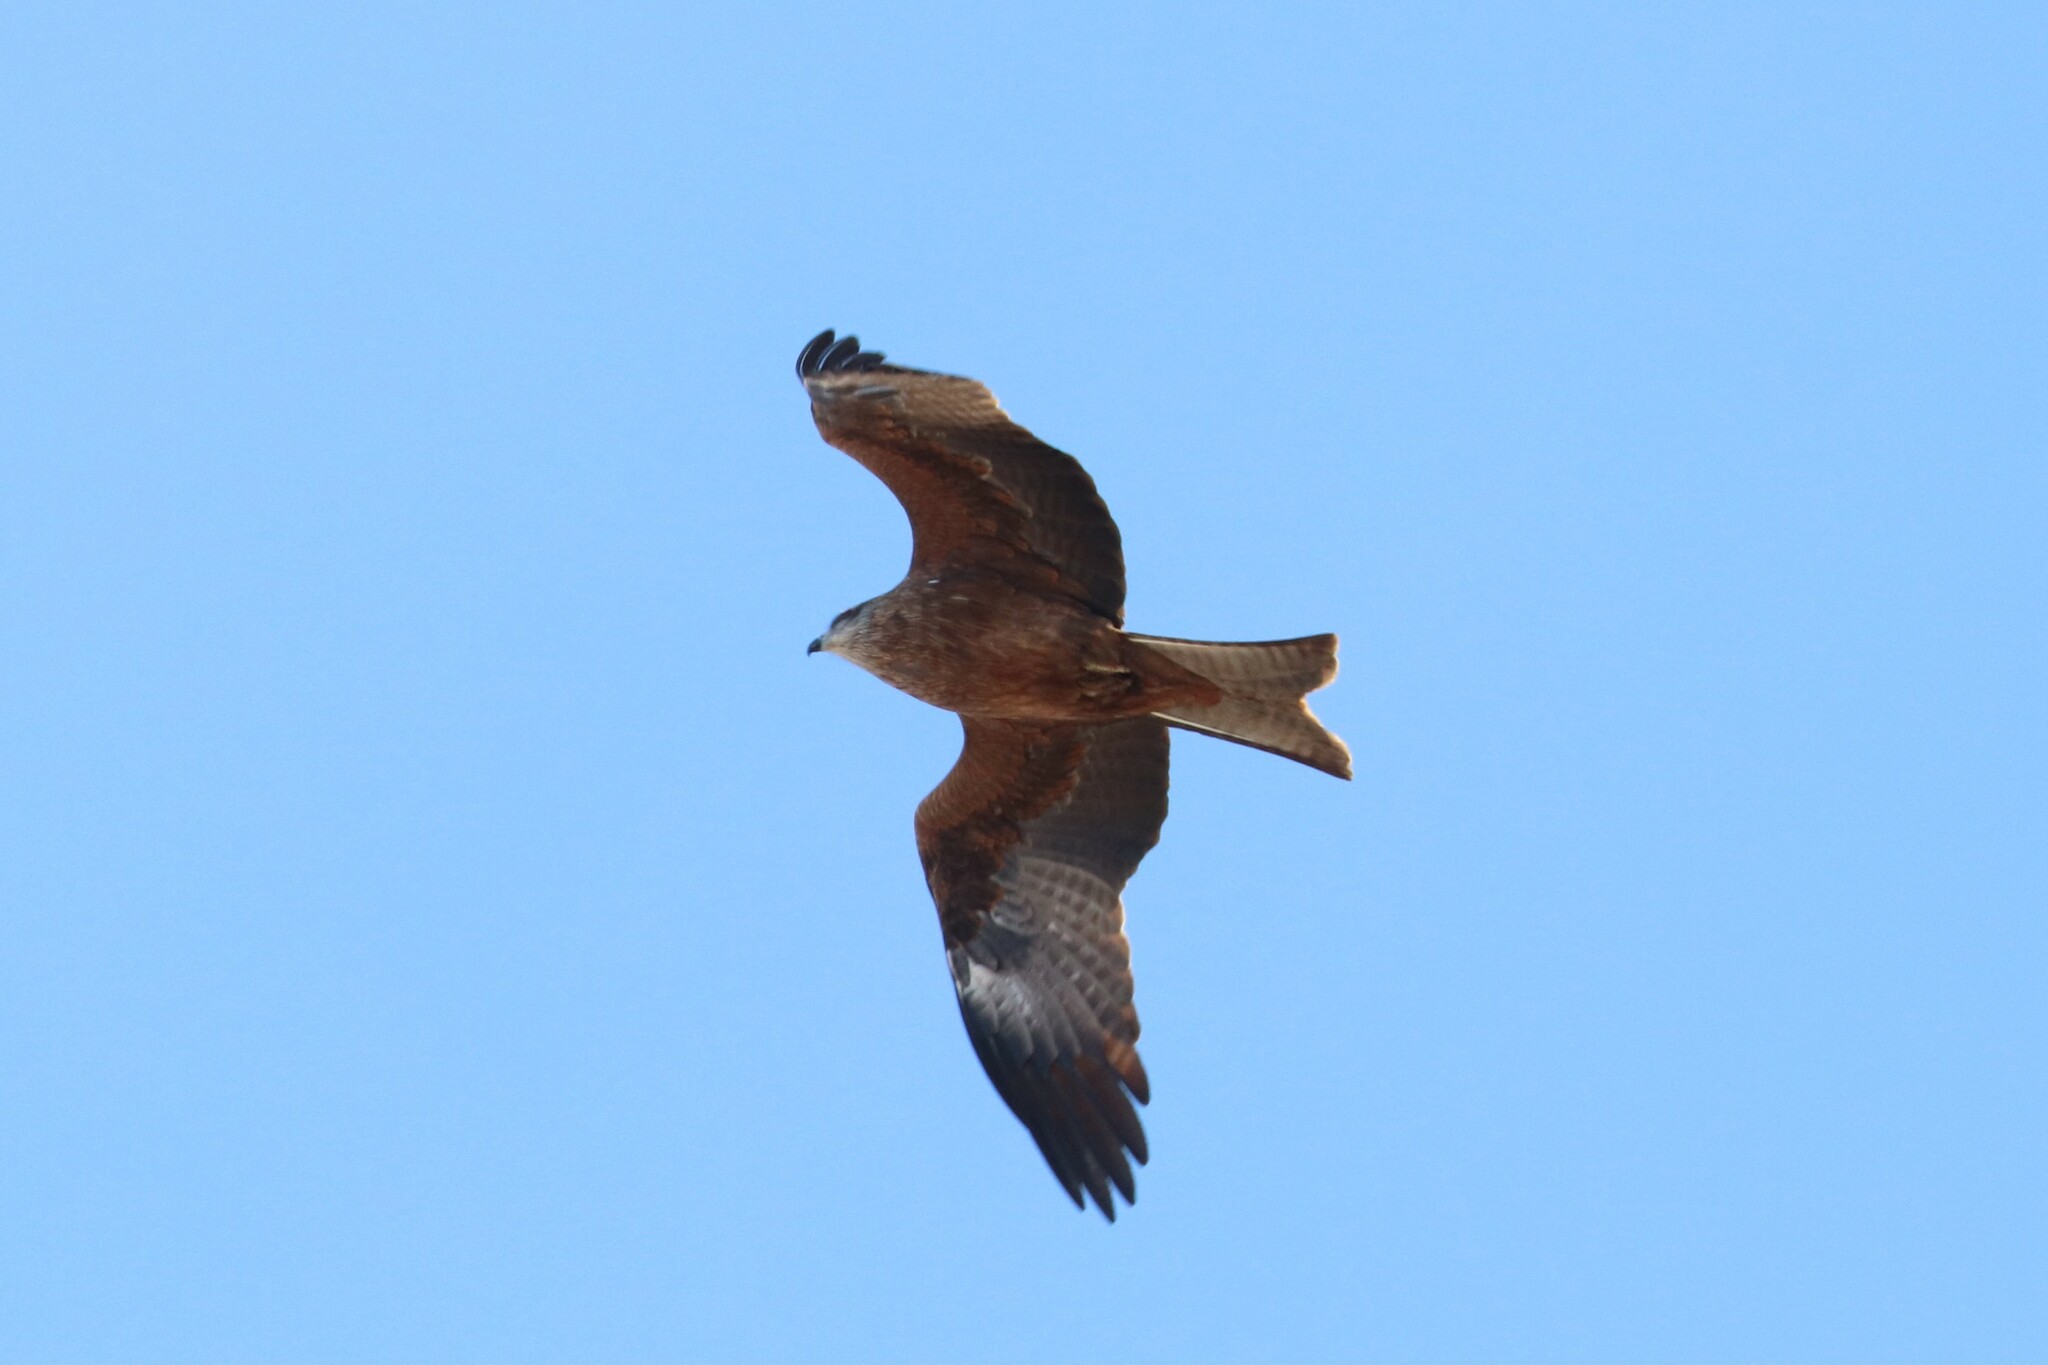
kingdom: Animalia
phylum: Chordata
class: Aves
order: Accipitriformes
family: Accipitridae
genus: Milvus
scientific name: Milvus migrans
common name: Black kite
